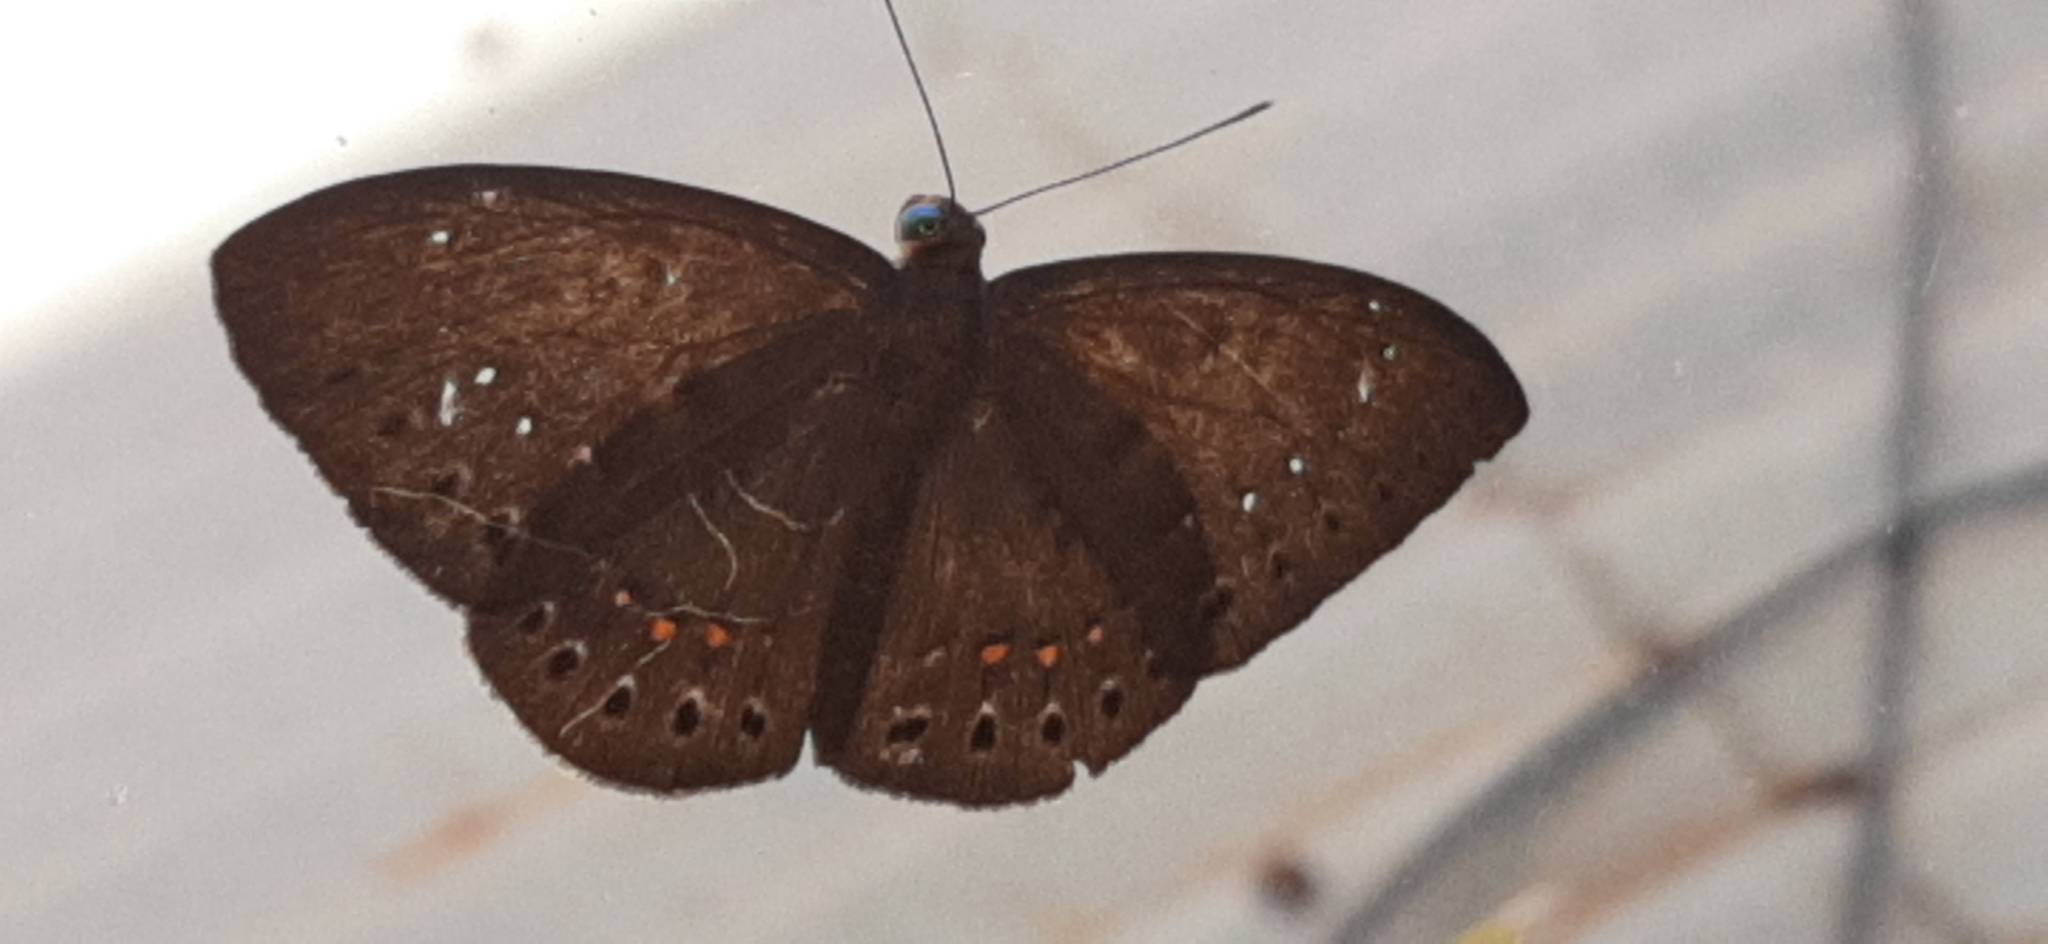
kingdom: Animalia
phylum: Cnidaria
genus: Eurybia
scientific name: Eurybia elvina
